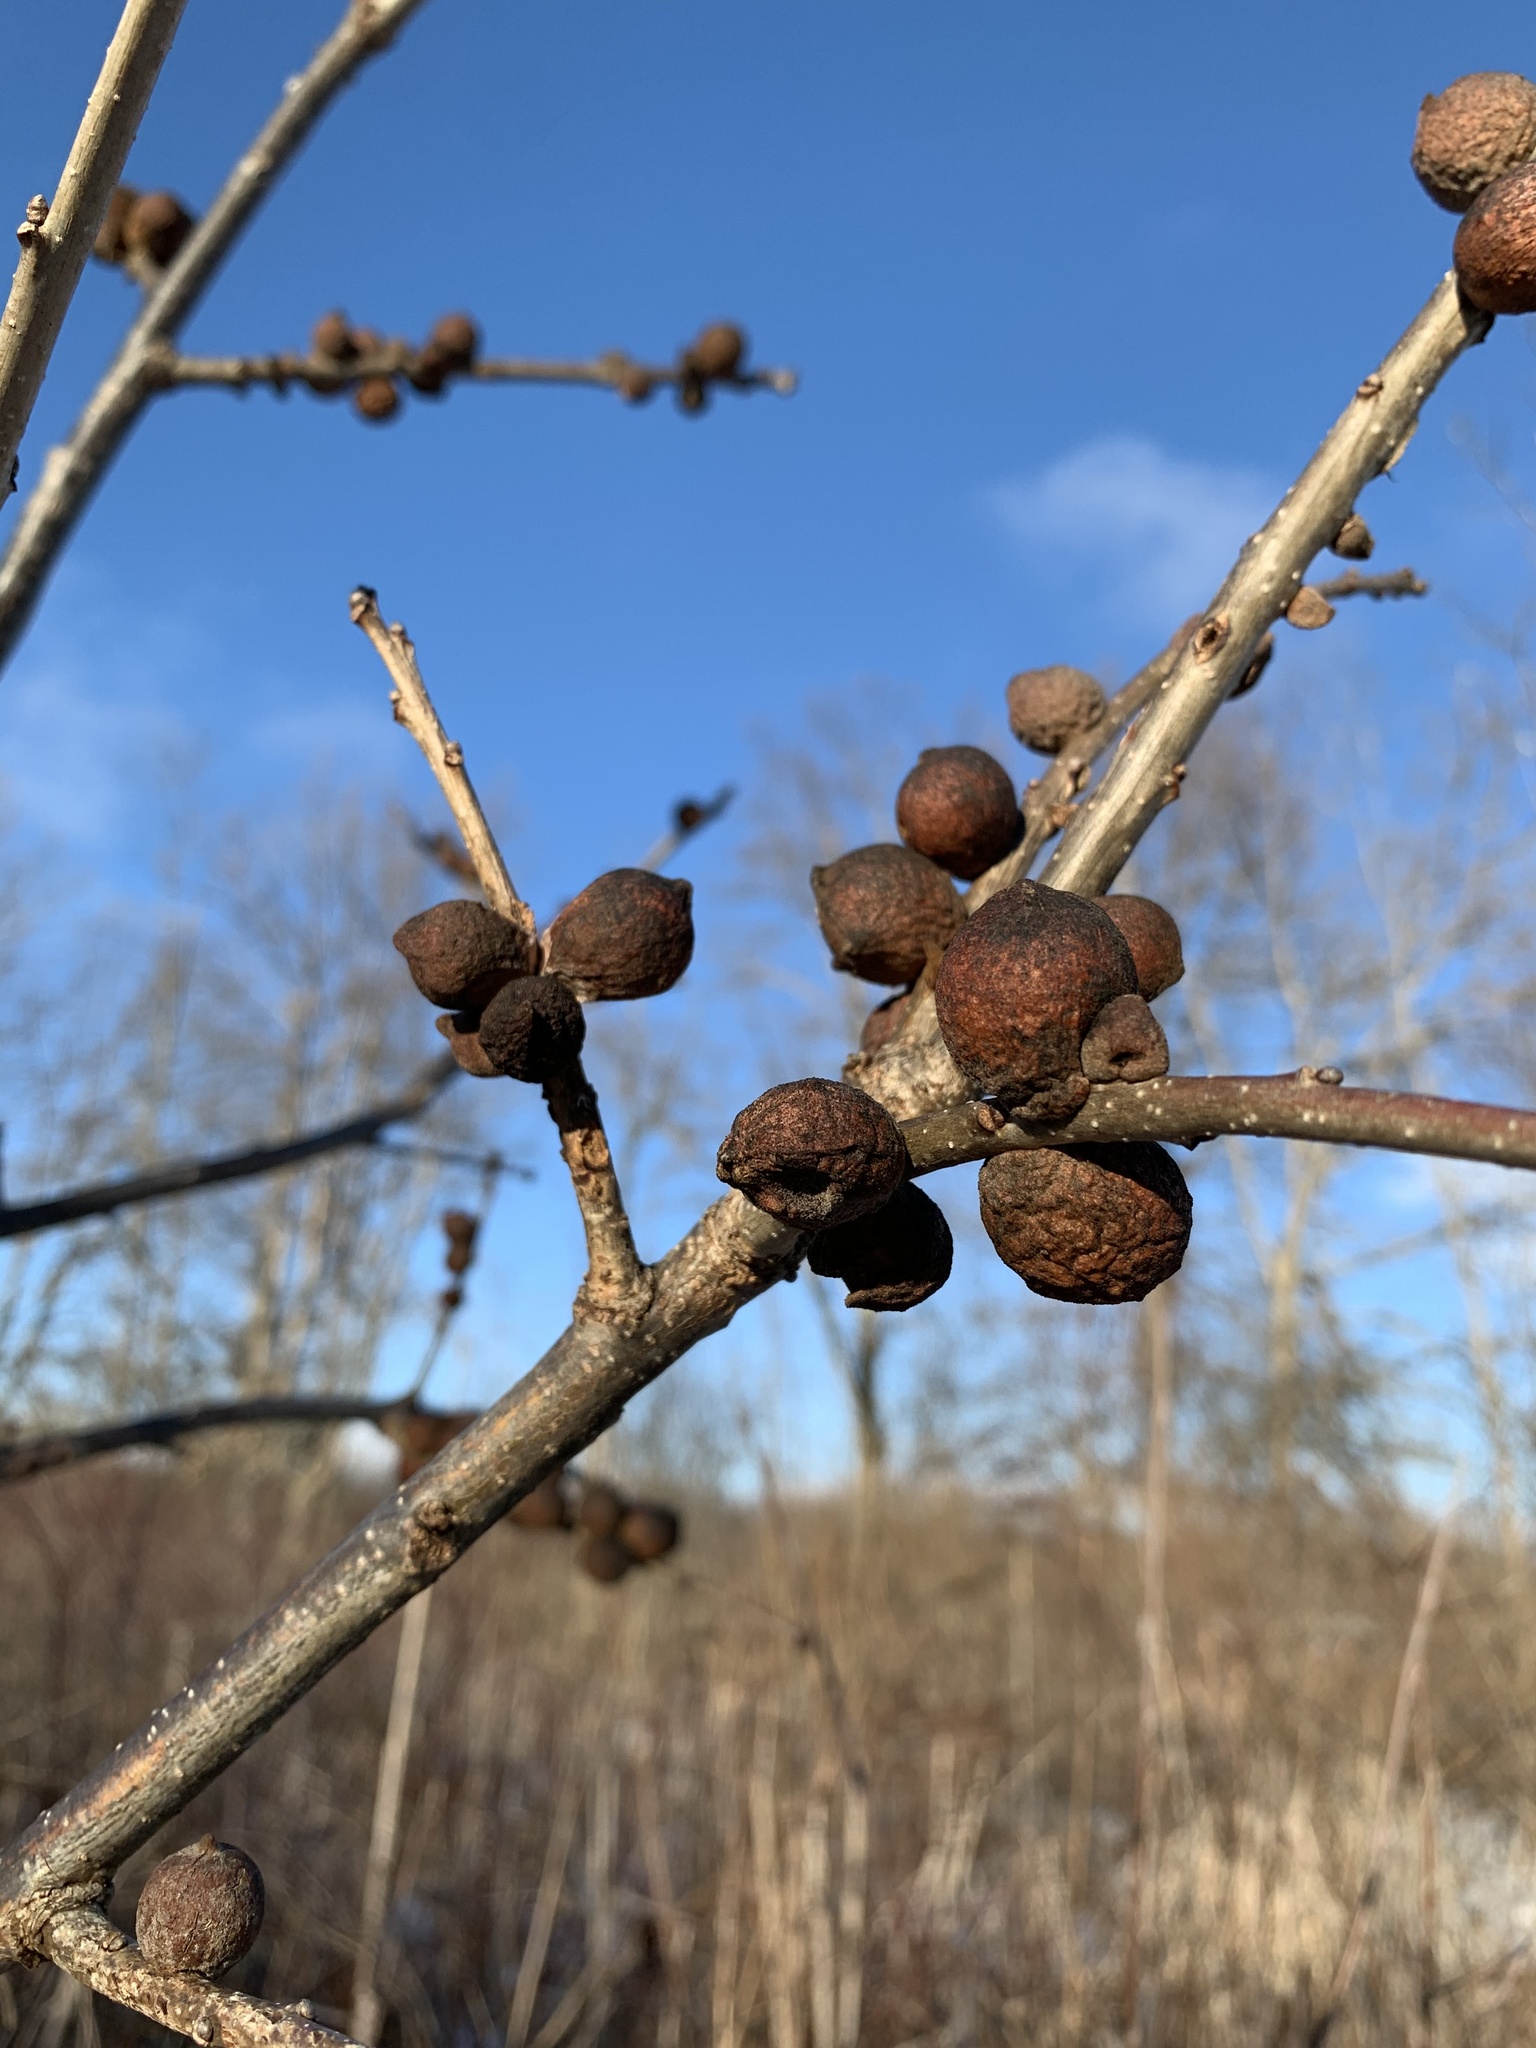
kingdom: Animalia
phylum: Arthropoda
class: Insecta
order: Hymenoptera
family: Cynipidae
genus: Disholcaspis
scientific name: Disholcaspis
